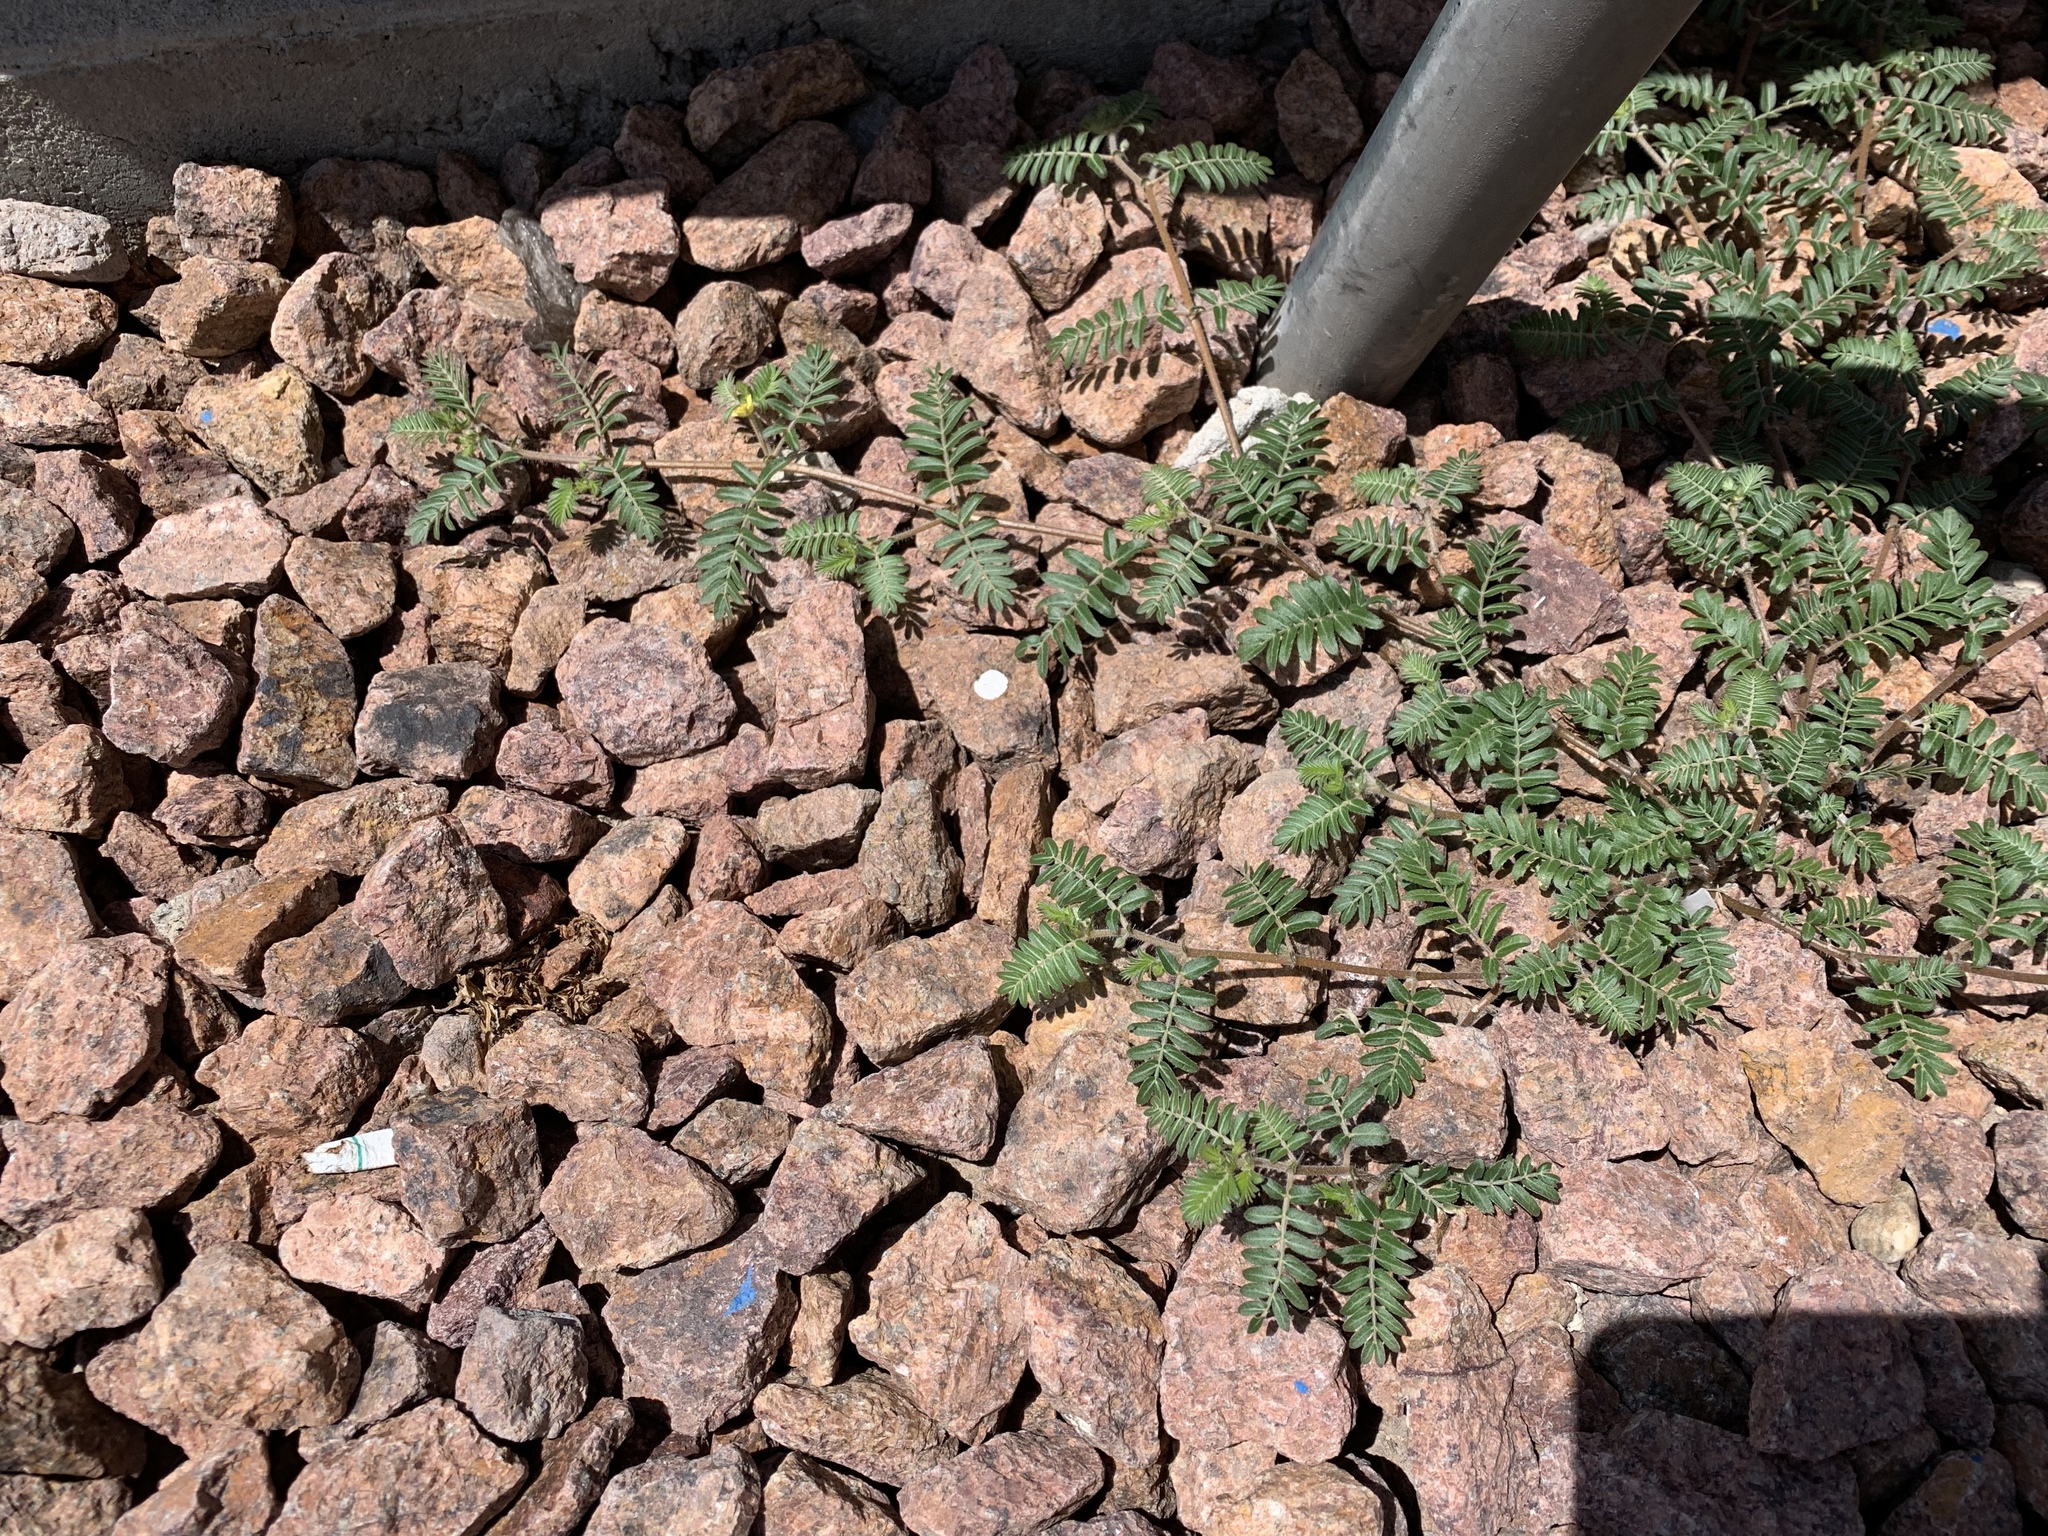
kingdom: Plantae
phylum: Tracheophyta
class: Magnoliopsida
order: Zygophyllales
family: Zygophyllaceae
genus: Tribulus
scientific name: Tribulus terrestris
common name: Puncturevine
